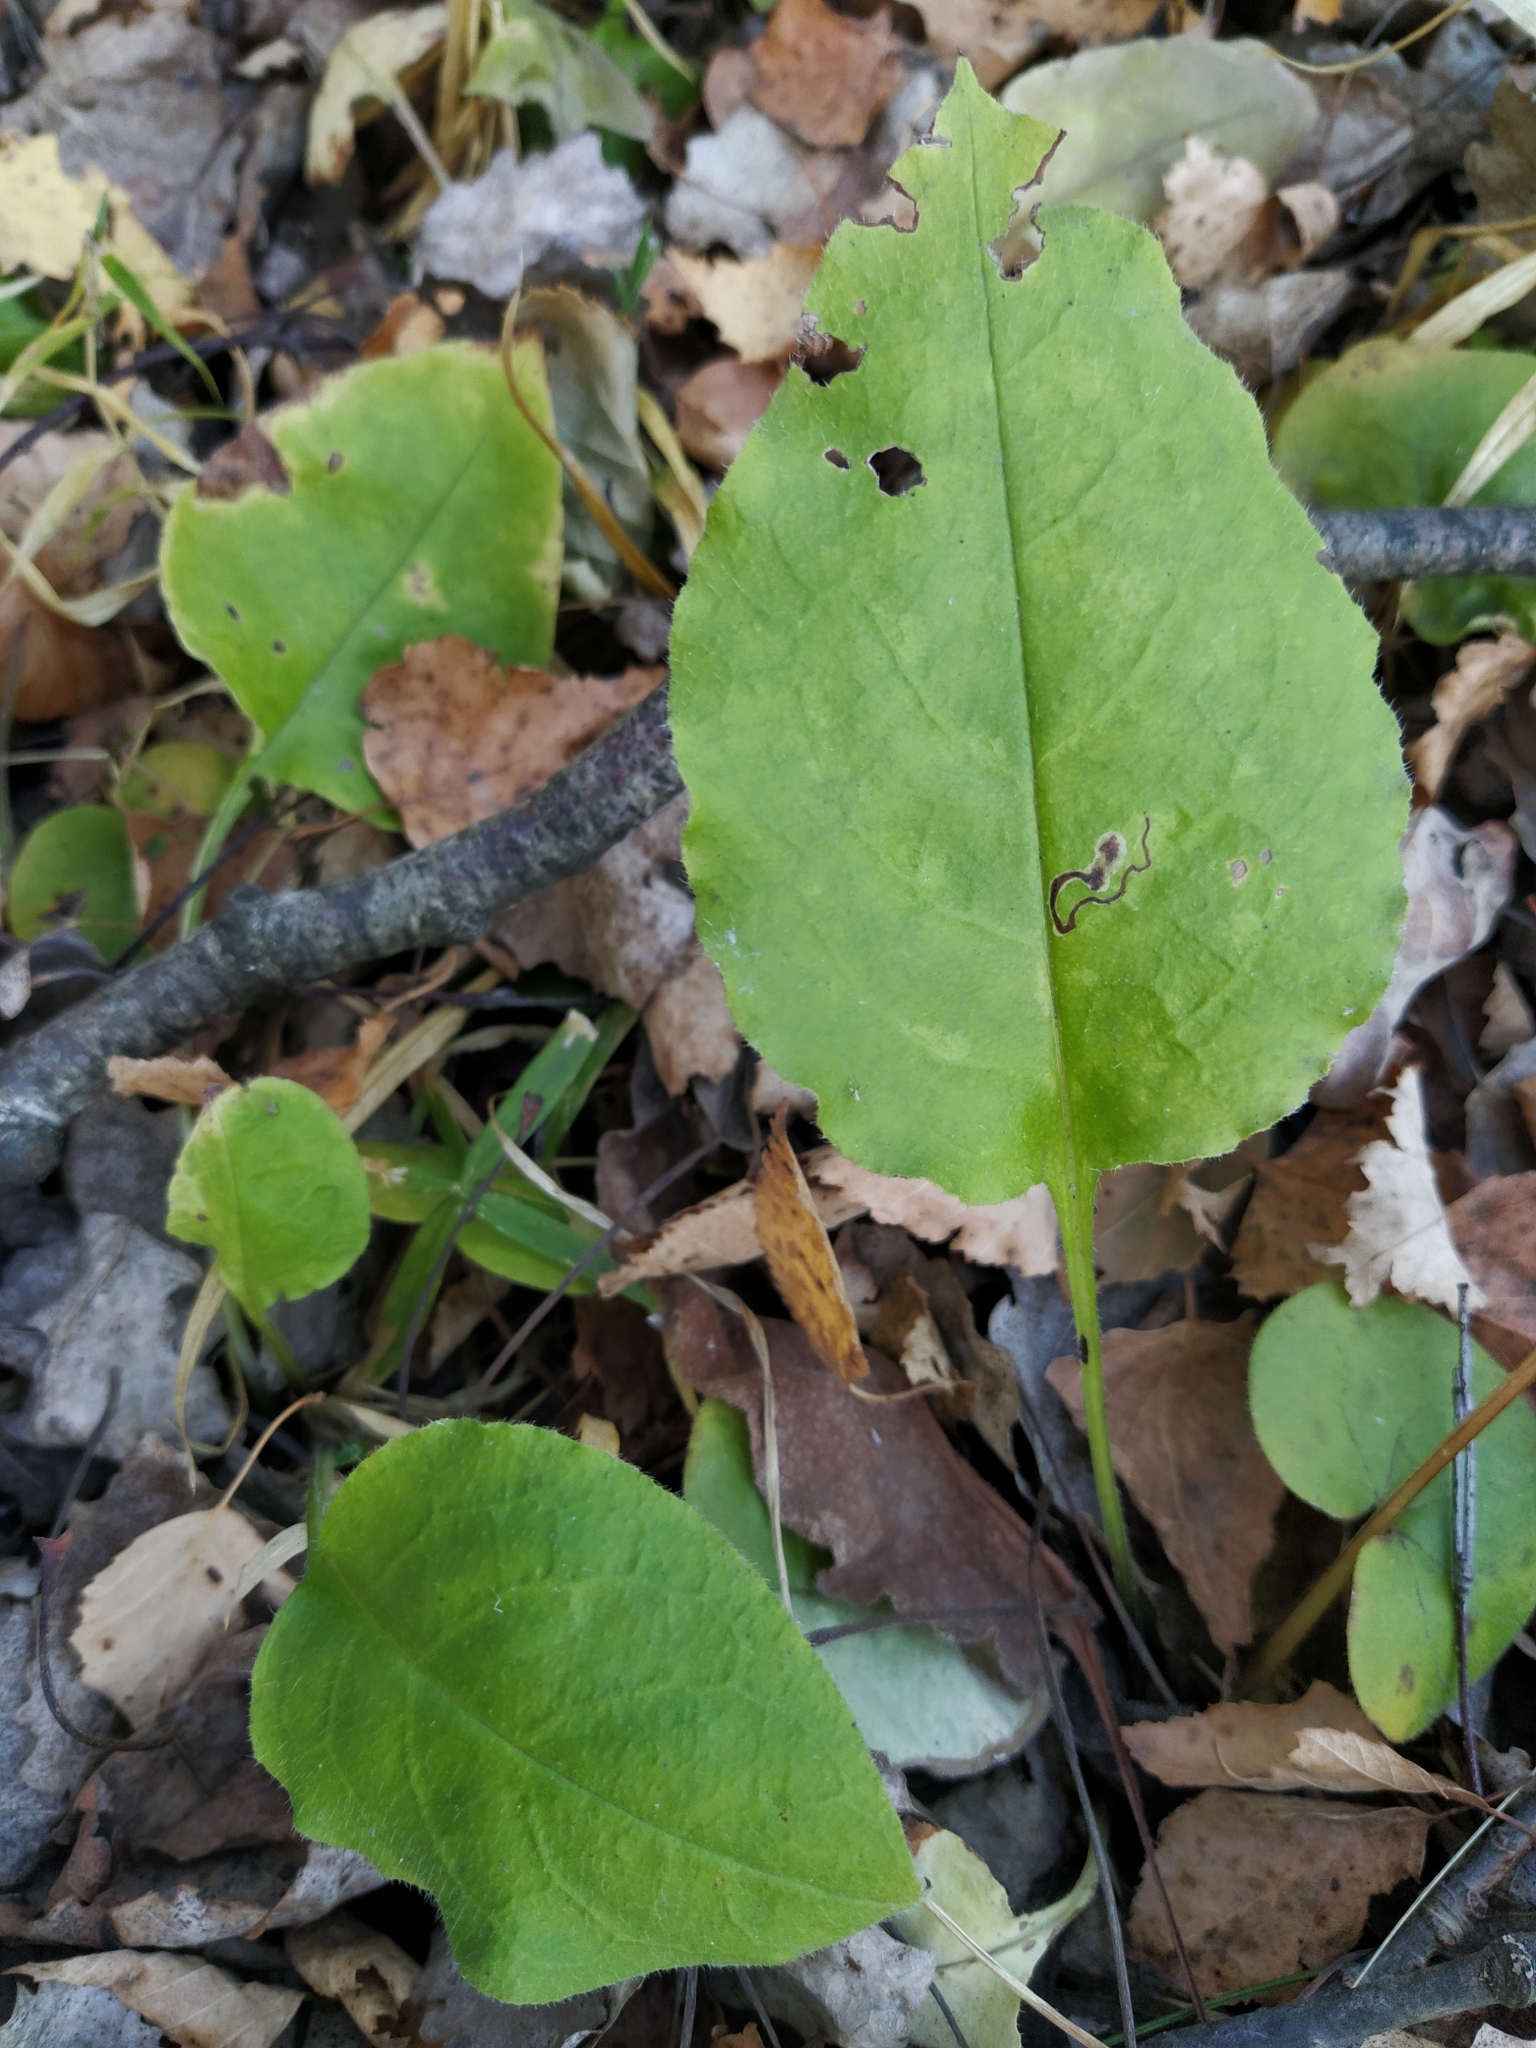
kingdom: Plantae
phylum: Tracheophyta
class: Magnoliopsida
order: Boraginales
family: Boraginaceae
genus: Pulmonaria
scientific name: Pulmonaria obscura
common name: Suffolk lungwort
